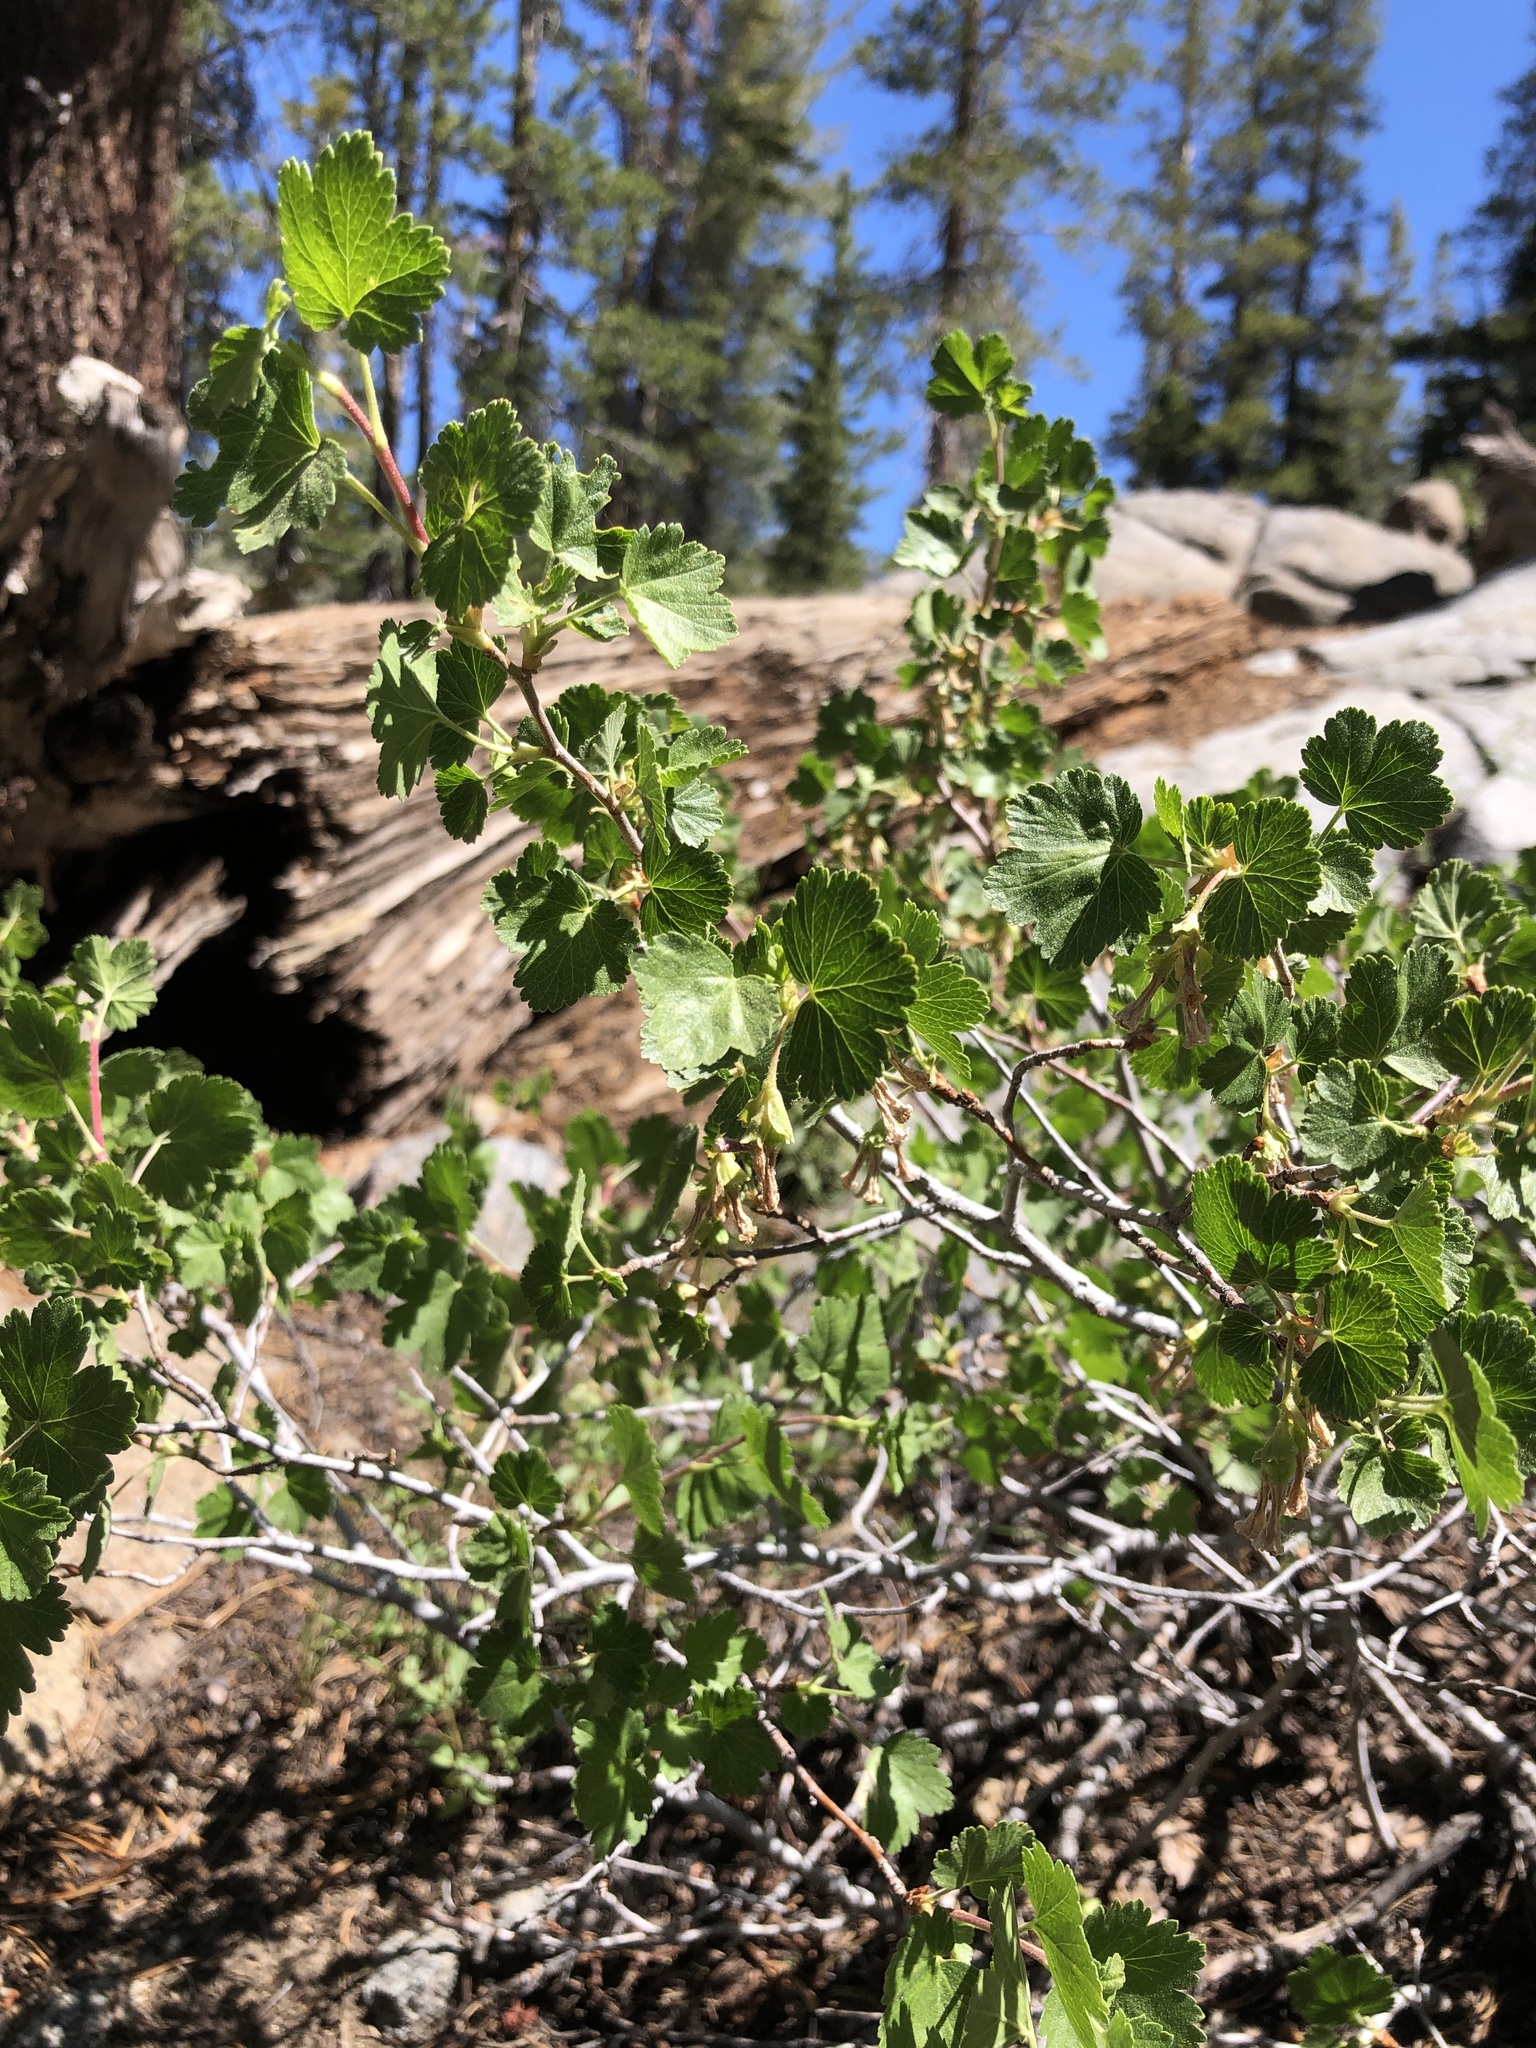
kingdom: Plantae
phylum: Tracheophyta
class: Magnoliopsida
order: Saxifragales
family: Grossulariaceae
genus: Ribes
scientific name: Ribes cereum
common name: Wax currant
